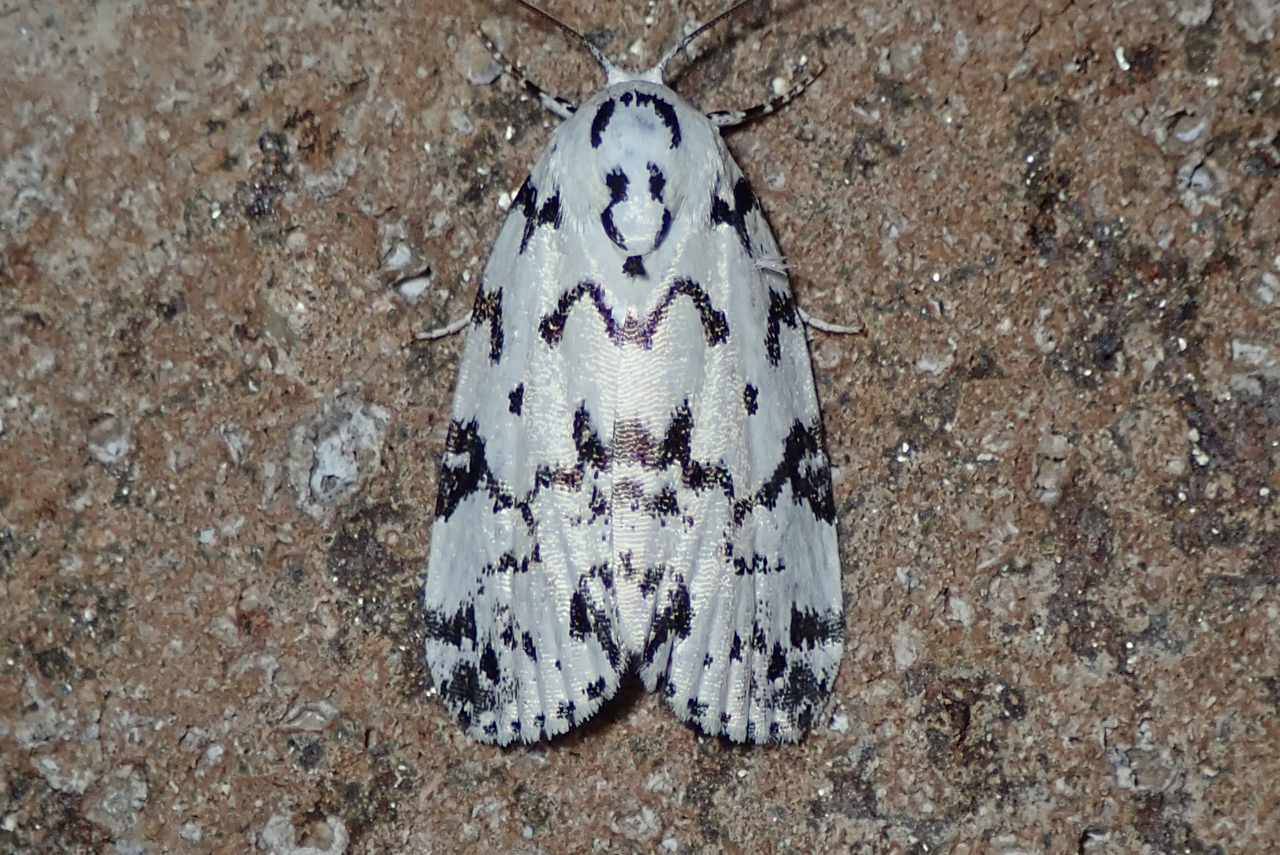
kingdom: Animalia
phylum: Arthropoda
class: Insecta
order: Lepidoptera
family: Noctuidae
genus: Polygrammate
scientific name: Polygrammate hebraeicum
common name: Hebrew moth
